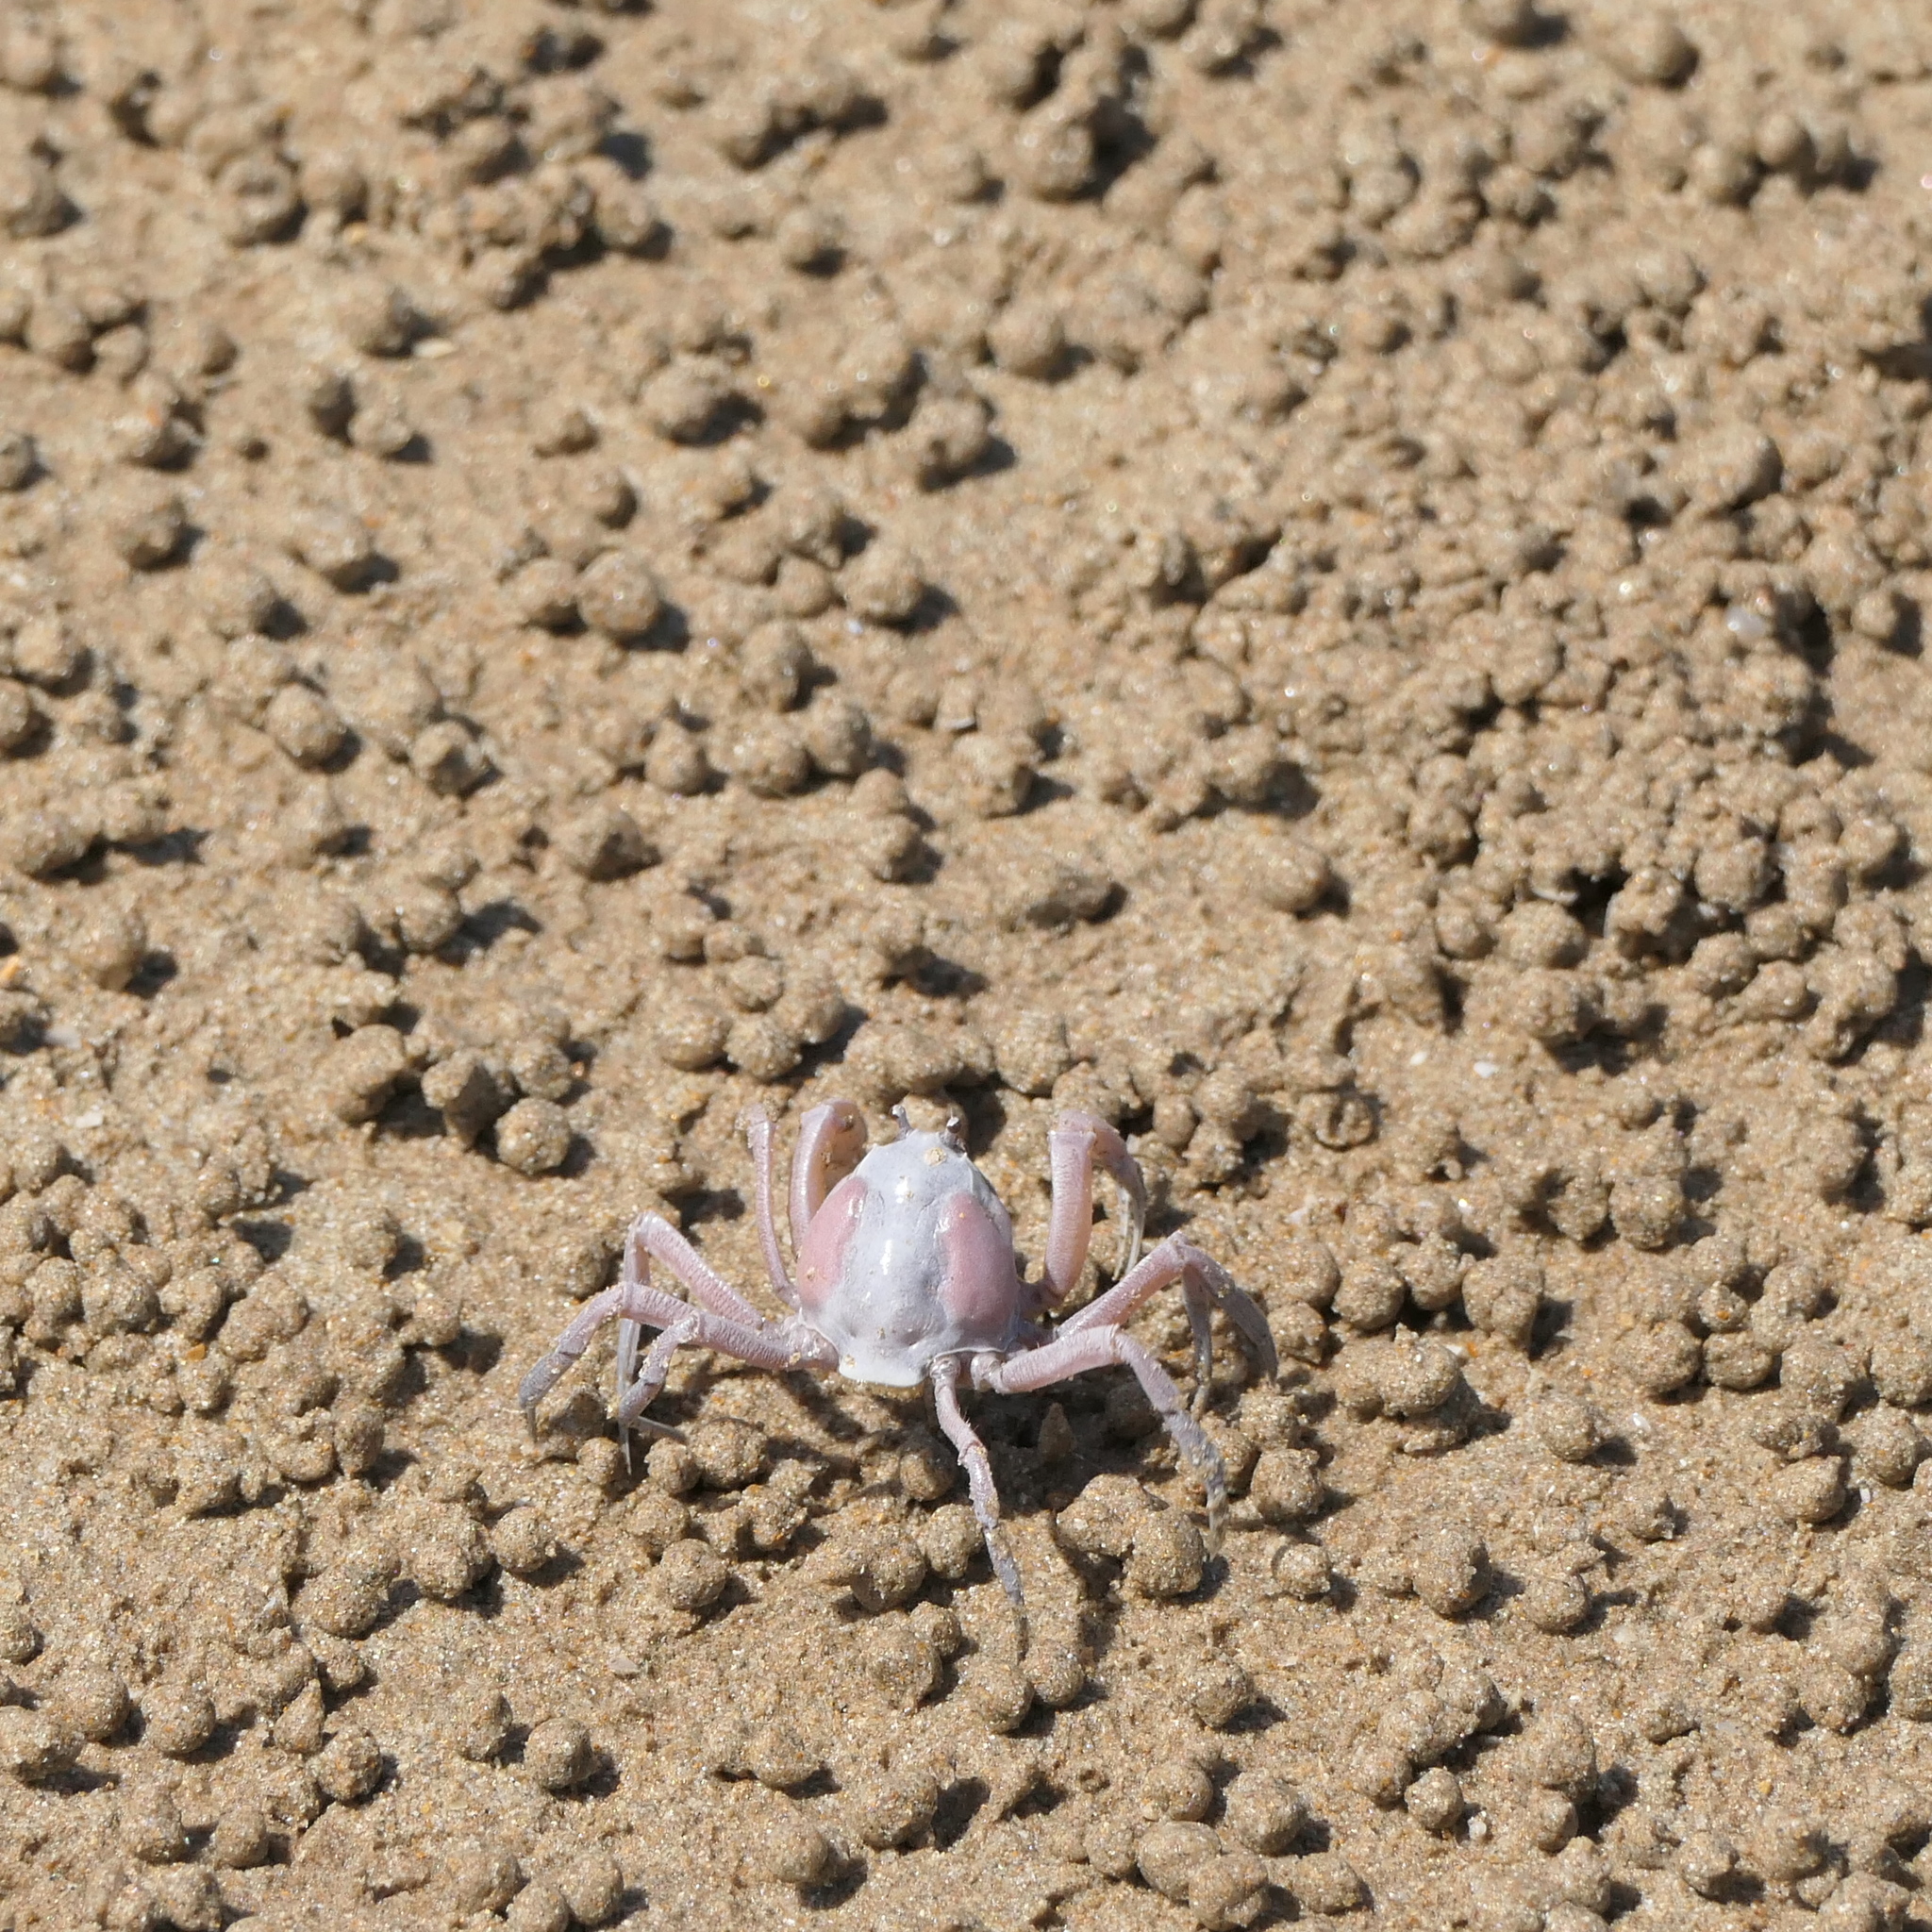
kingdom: Animalia
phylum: Arthropoda
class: Malacostraca
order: Decapoda
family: Mictyridae
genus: Mictyris
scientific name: Mictyris darwinensis
